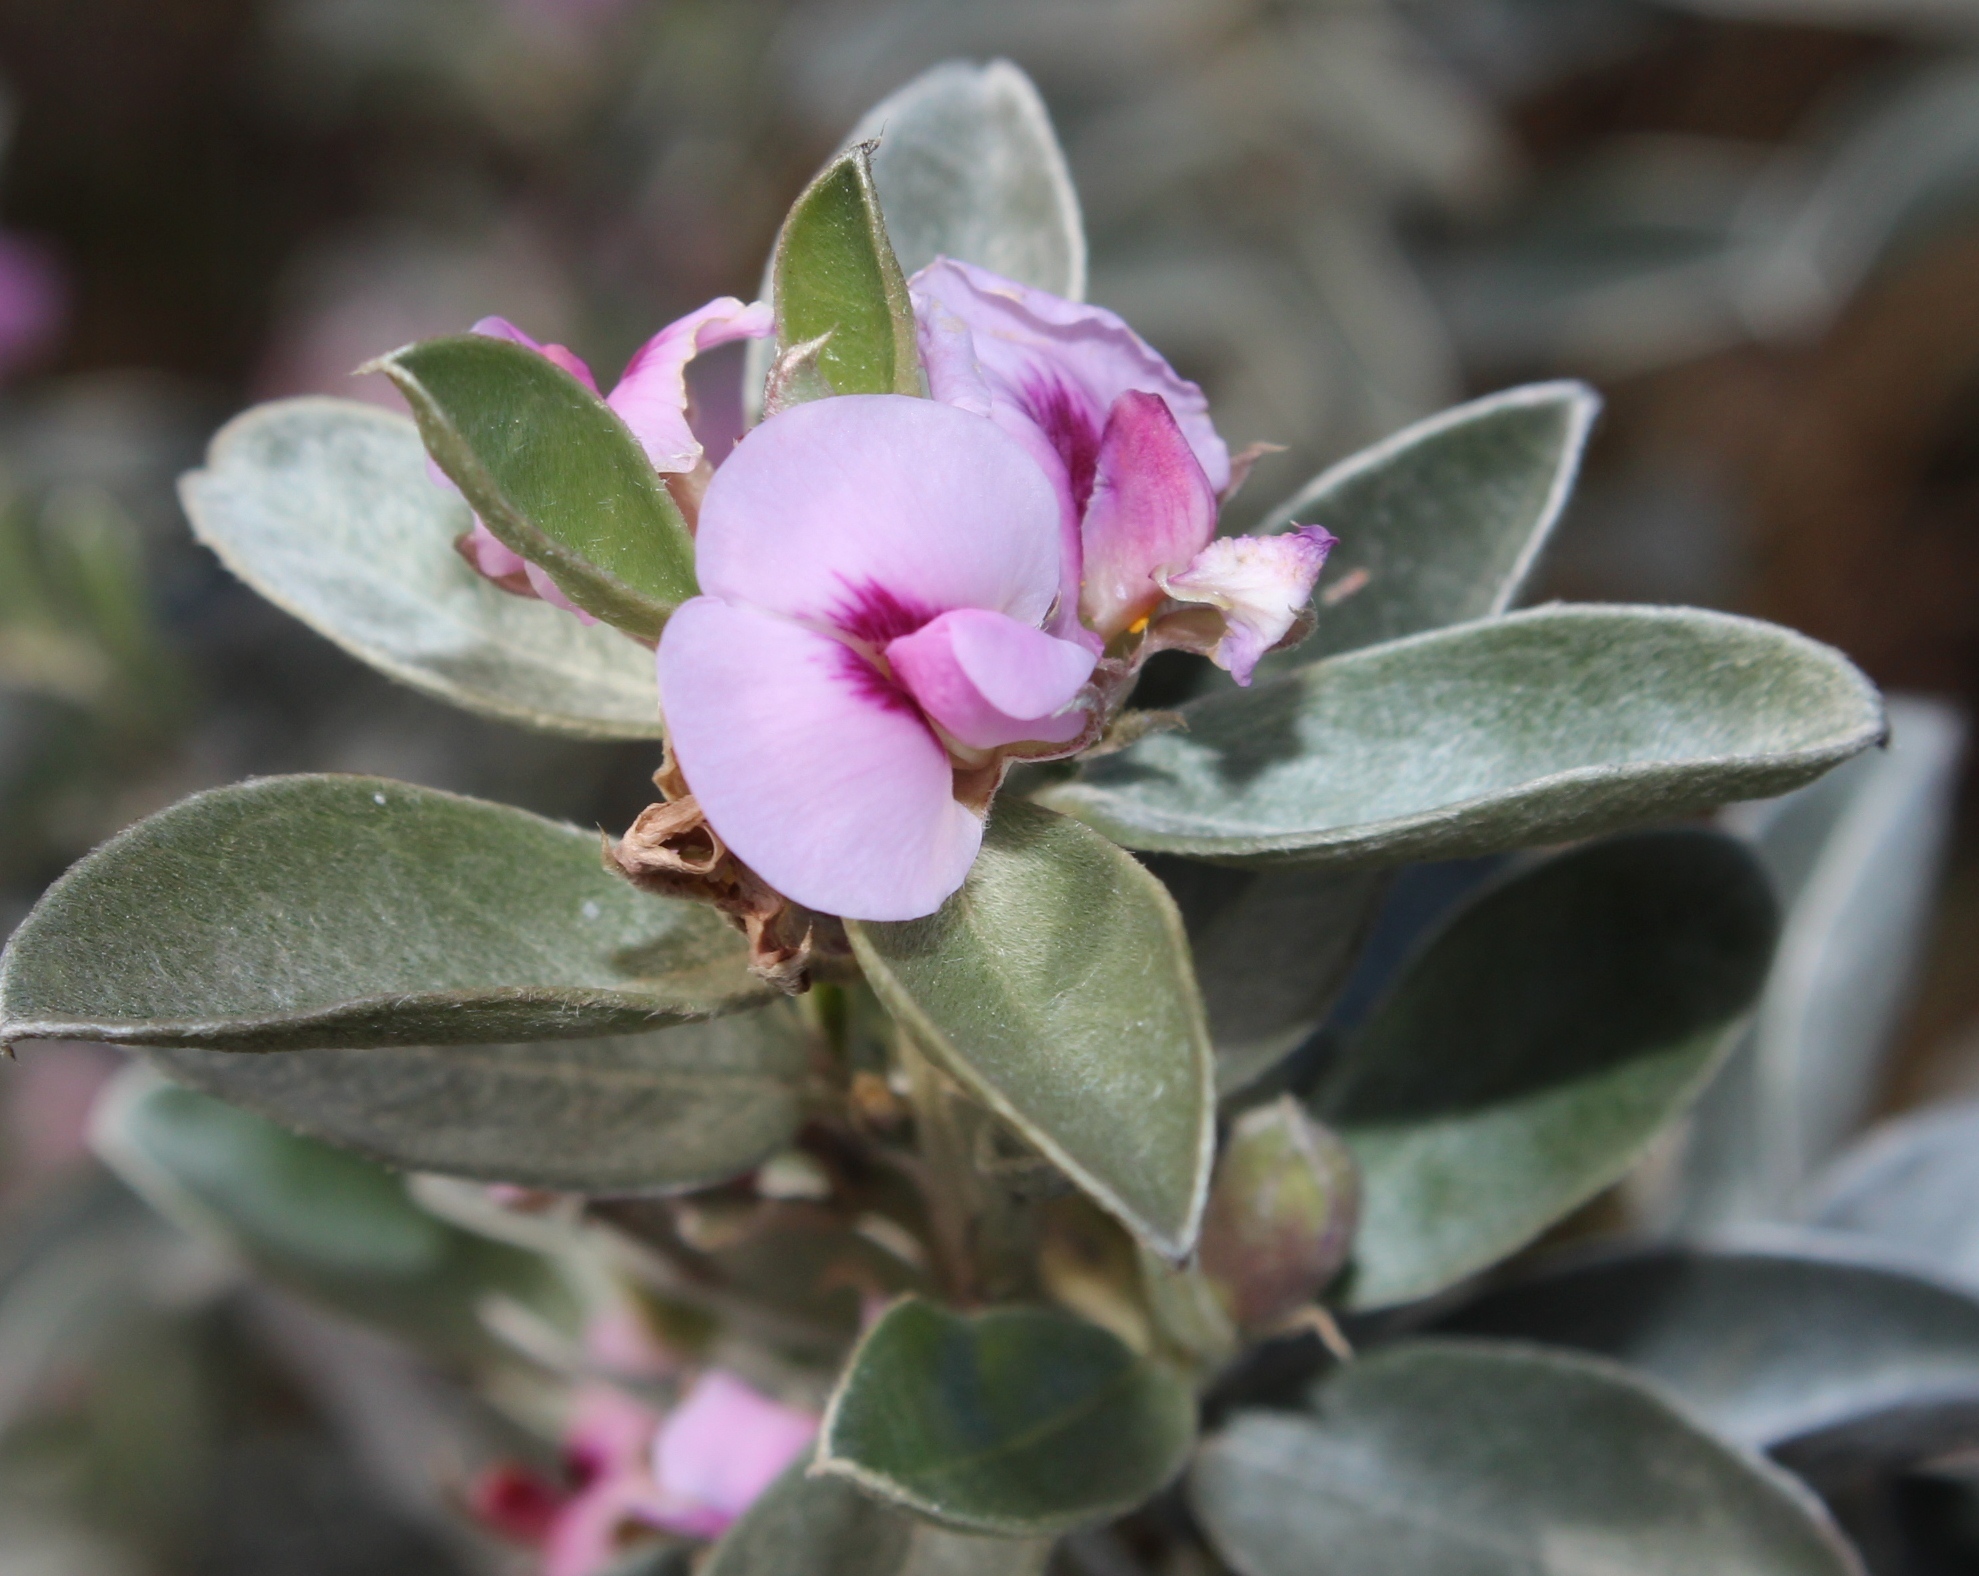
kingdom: Plantae
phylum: Tracheophyta
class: Magnoliopsida
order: Fabales
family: Fabaceae
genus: Podalyria
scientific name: Podalyria sericea
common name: Silver podalyria
